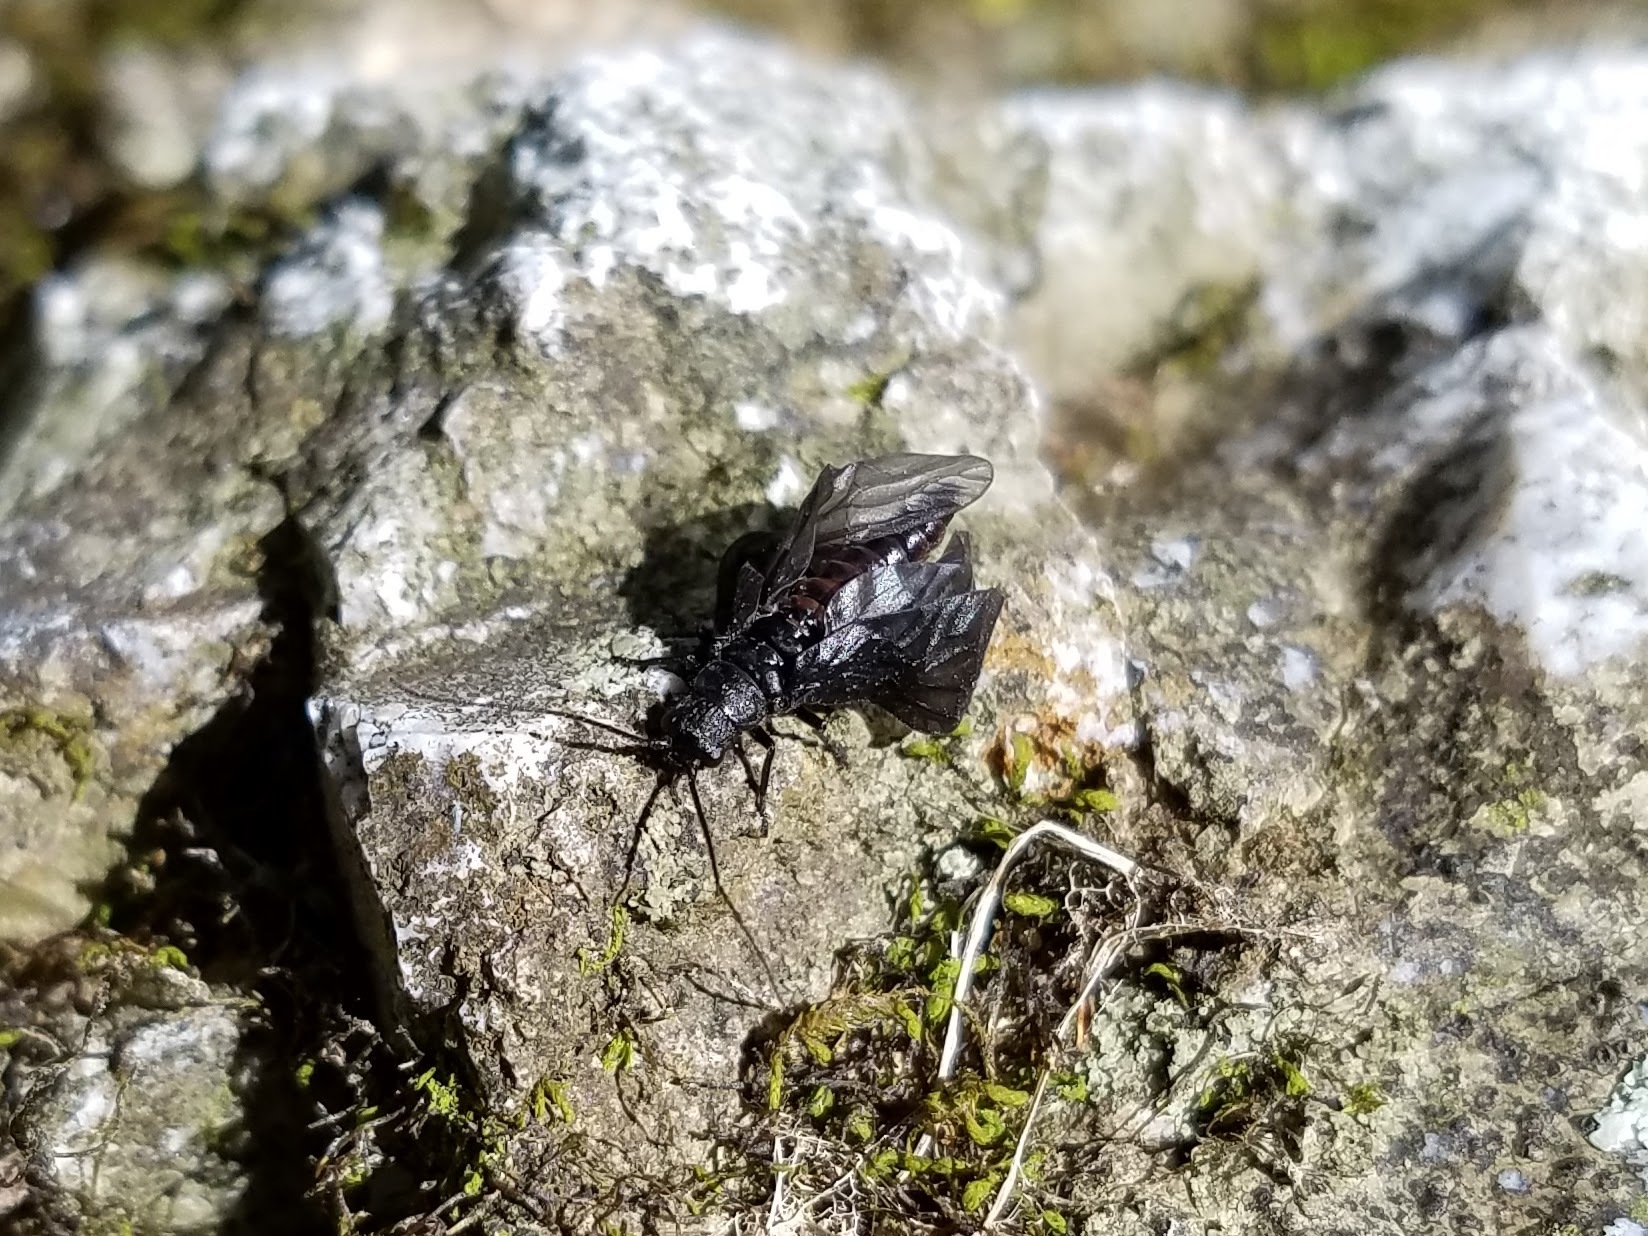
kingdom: Animalia
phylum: Arthropoda
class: Insecta
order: Megaloptera
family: Sialidae
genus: Sialis
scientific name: Sialis
